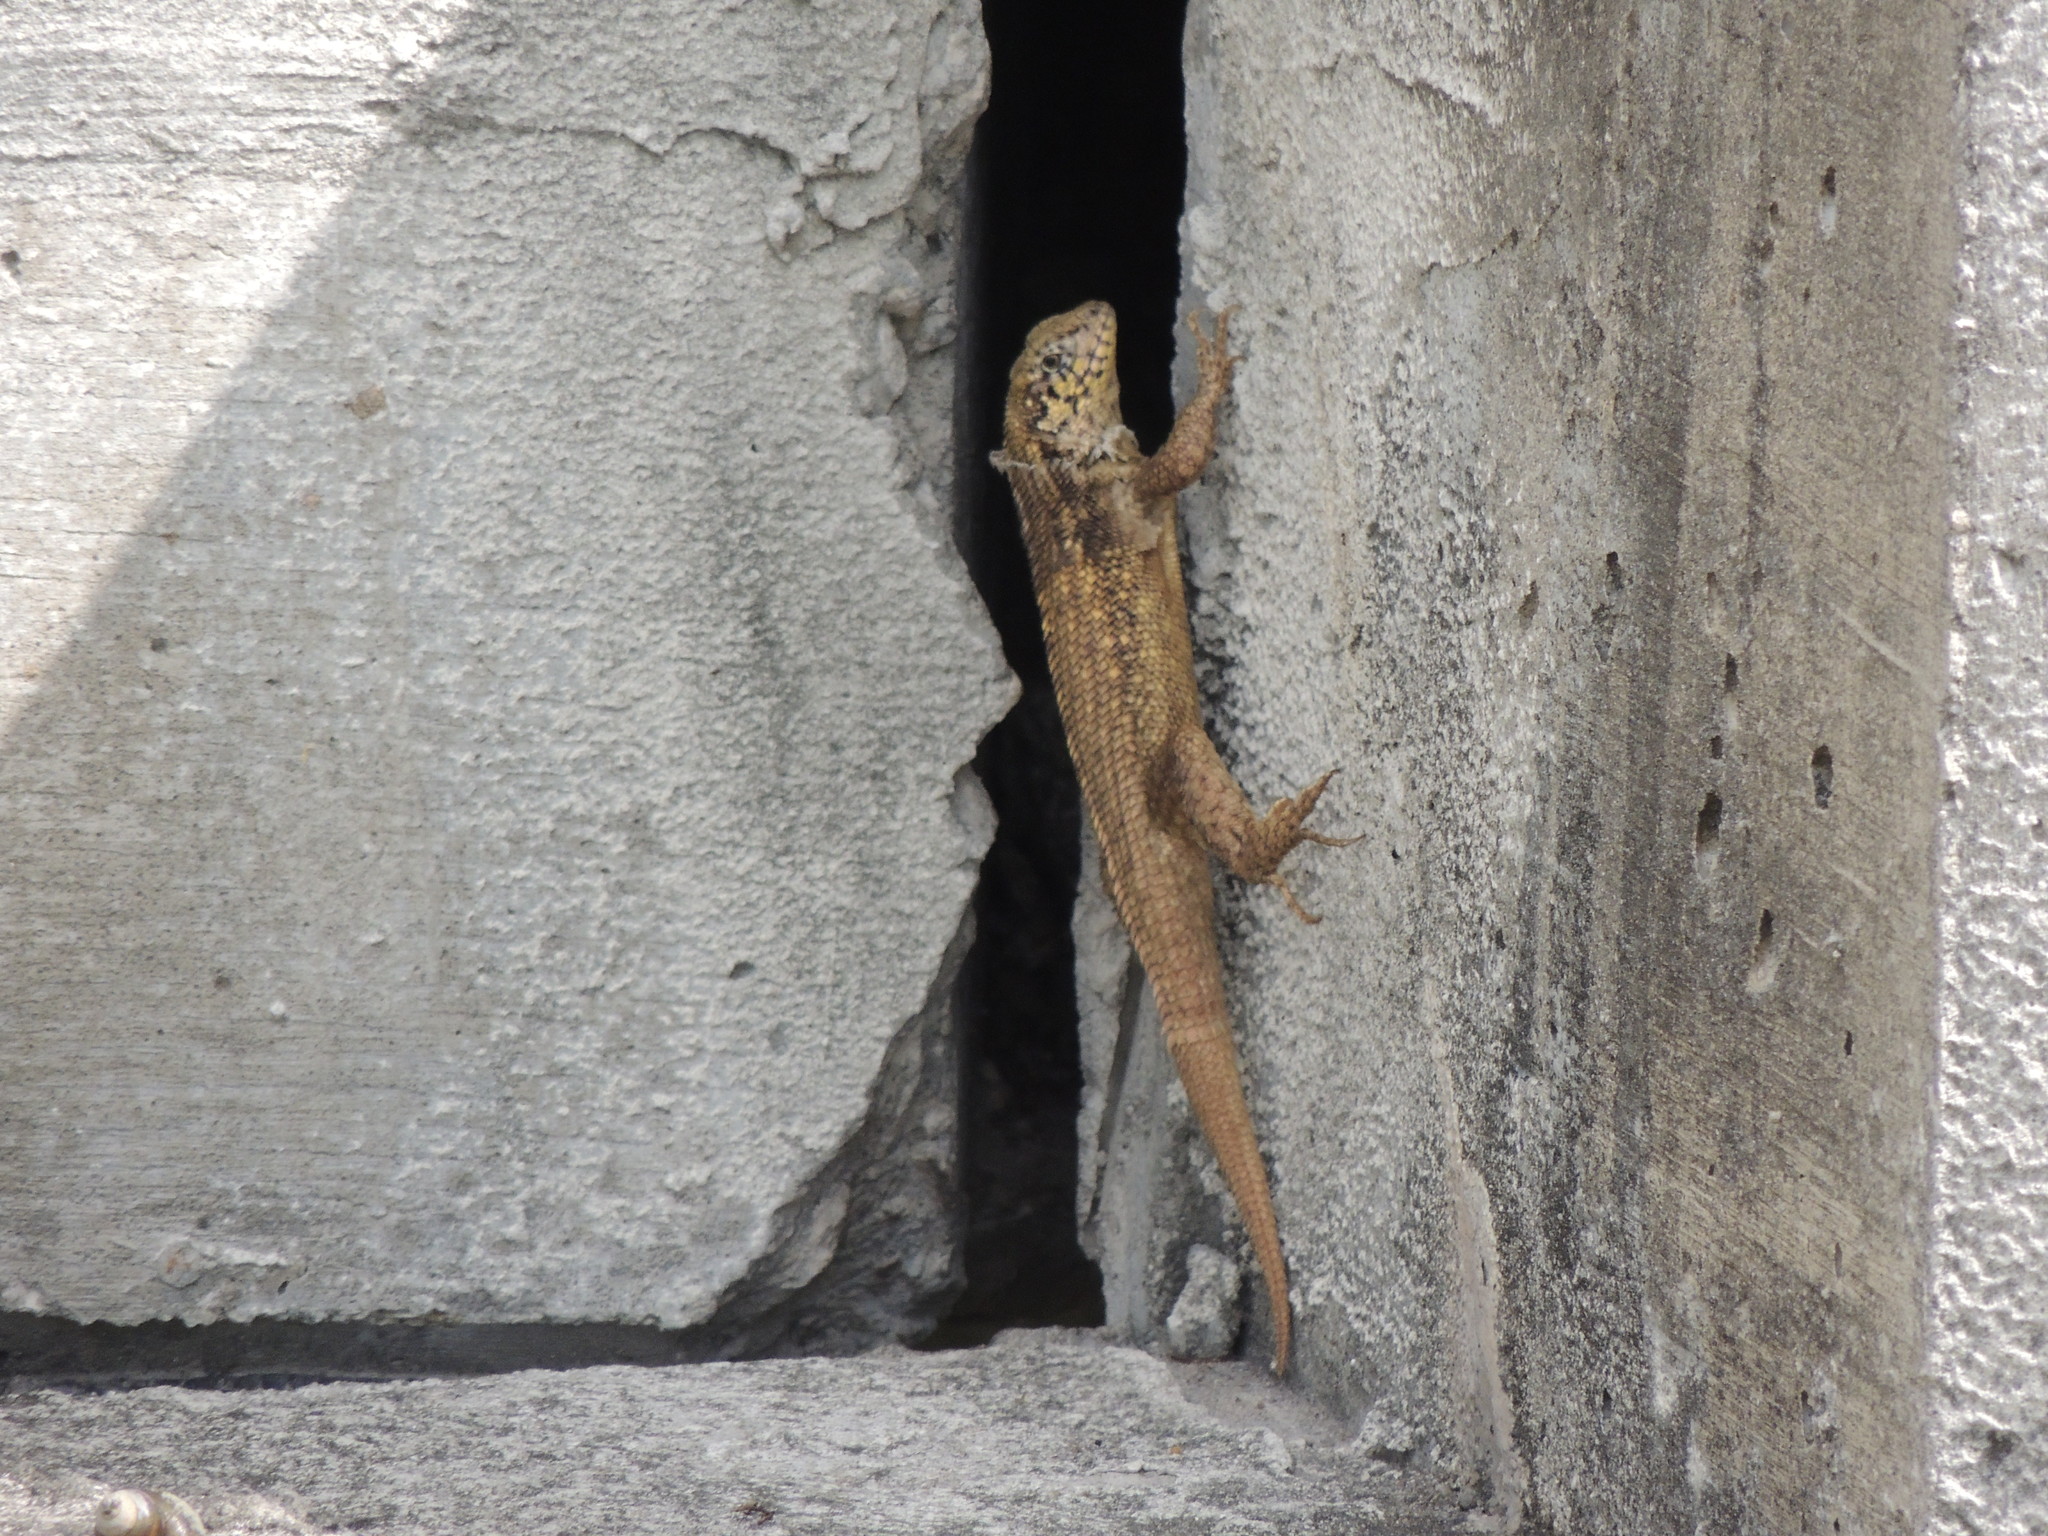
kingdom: Animalia
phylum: Chordata
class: Squamata
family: Leiocephalidae
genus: Leiocephalus
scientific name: Leiocephalus carinatus
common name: Northern curly-tailed lizard
